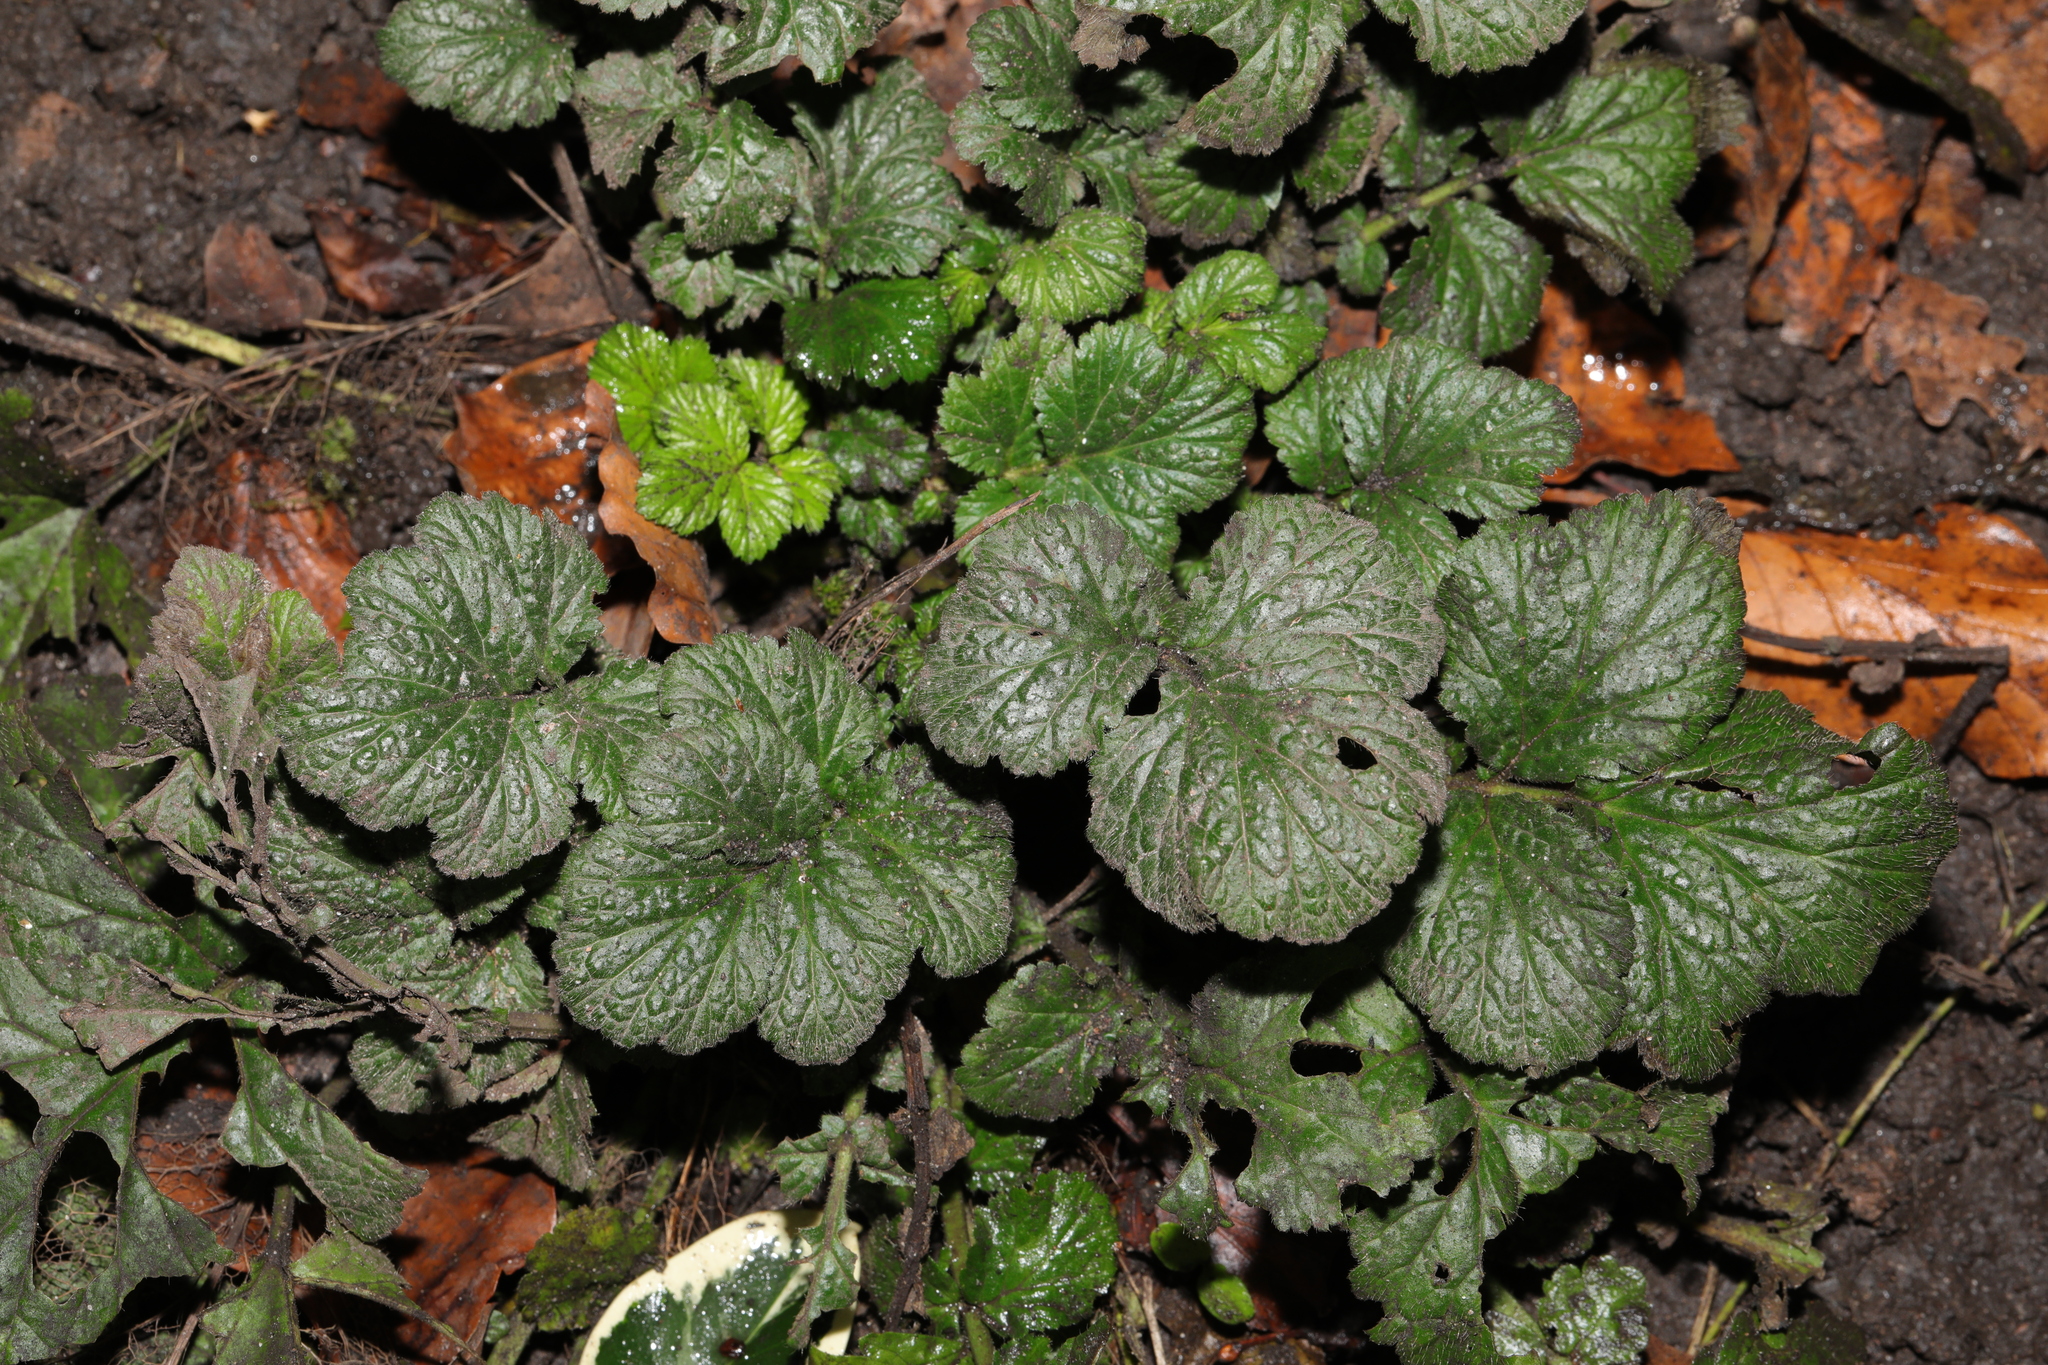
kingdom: Plantae
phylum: Tracheophyta
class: Magnoliopsida
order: Rosales
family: Rosaceae
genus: Geum
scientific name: Geum urbanum
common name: Wood avens
